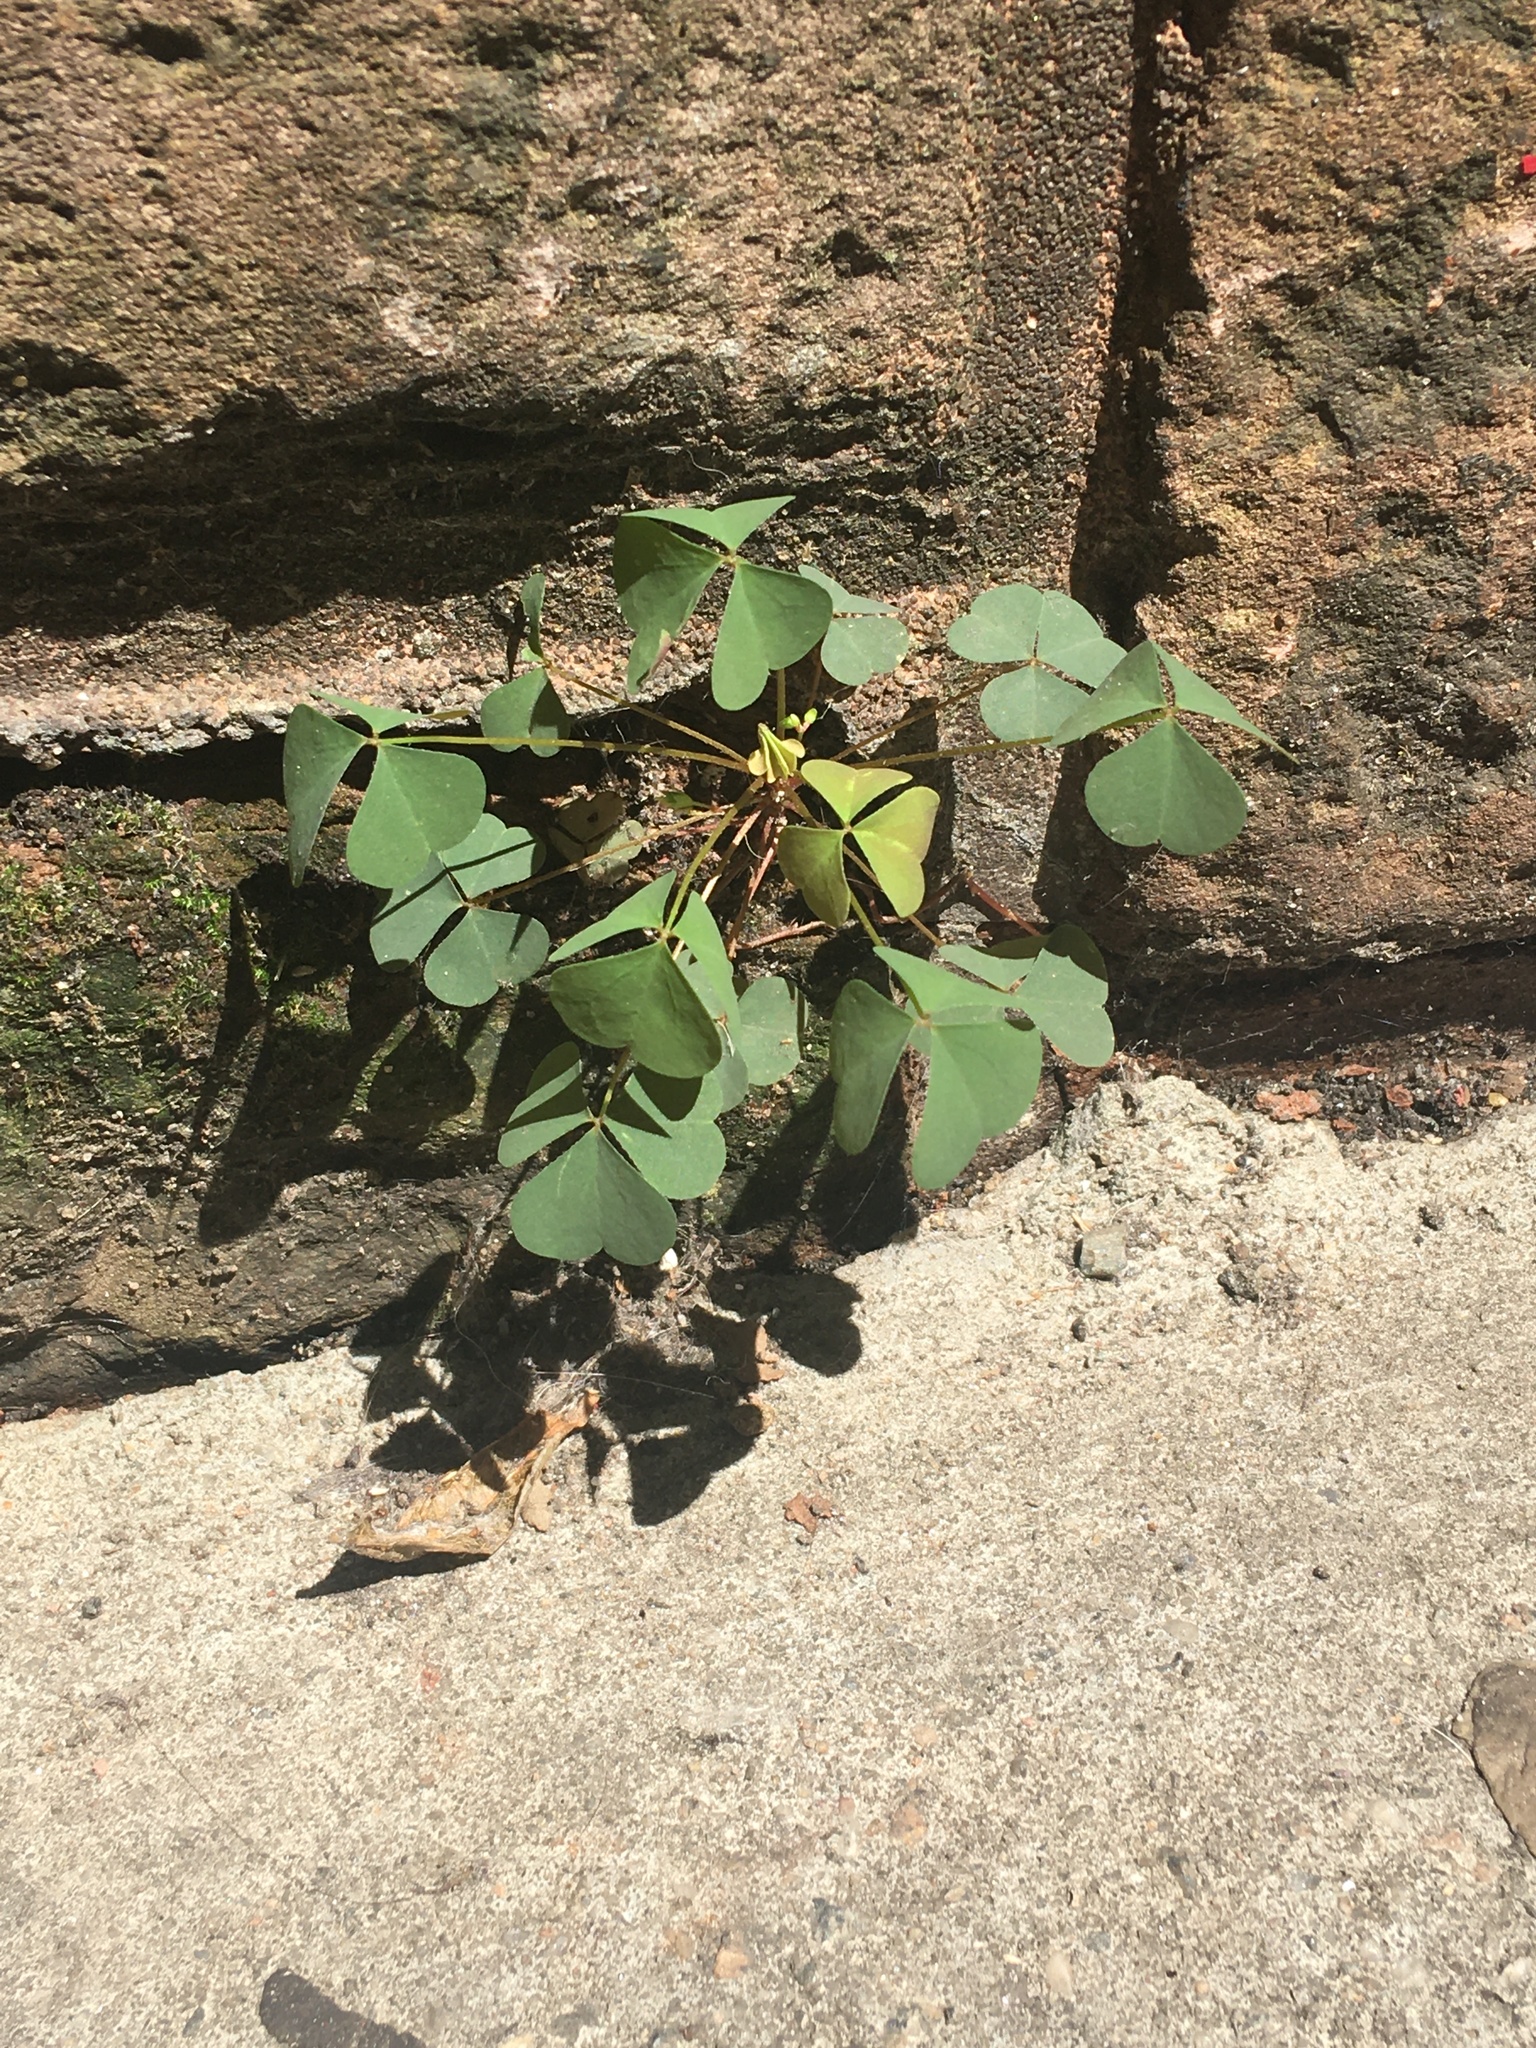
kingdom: Plantae
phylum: Tracheophyta
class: Magnoliopsida
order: Oxalidales
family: Oxalidaceae
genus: Oxalis
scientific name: Oxalis corniculata
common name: Procumbent yellow-sorrel
